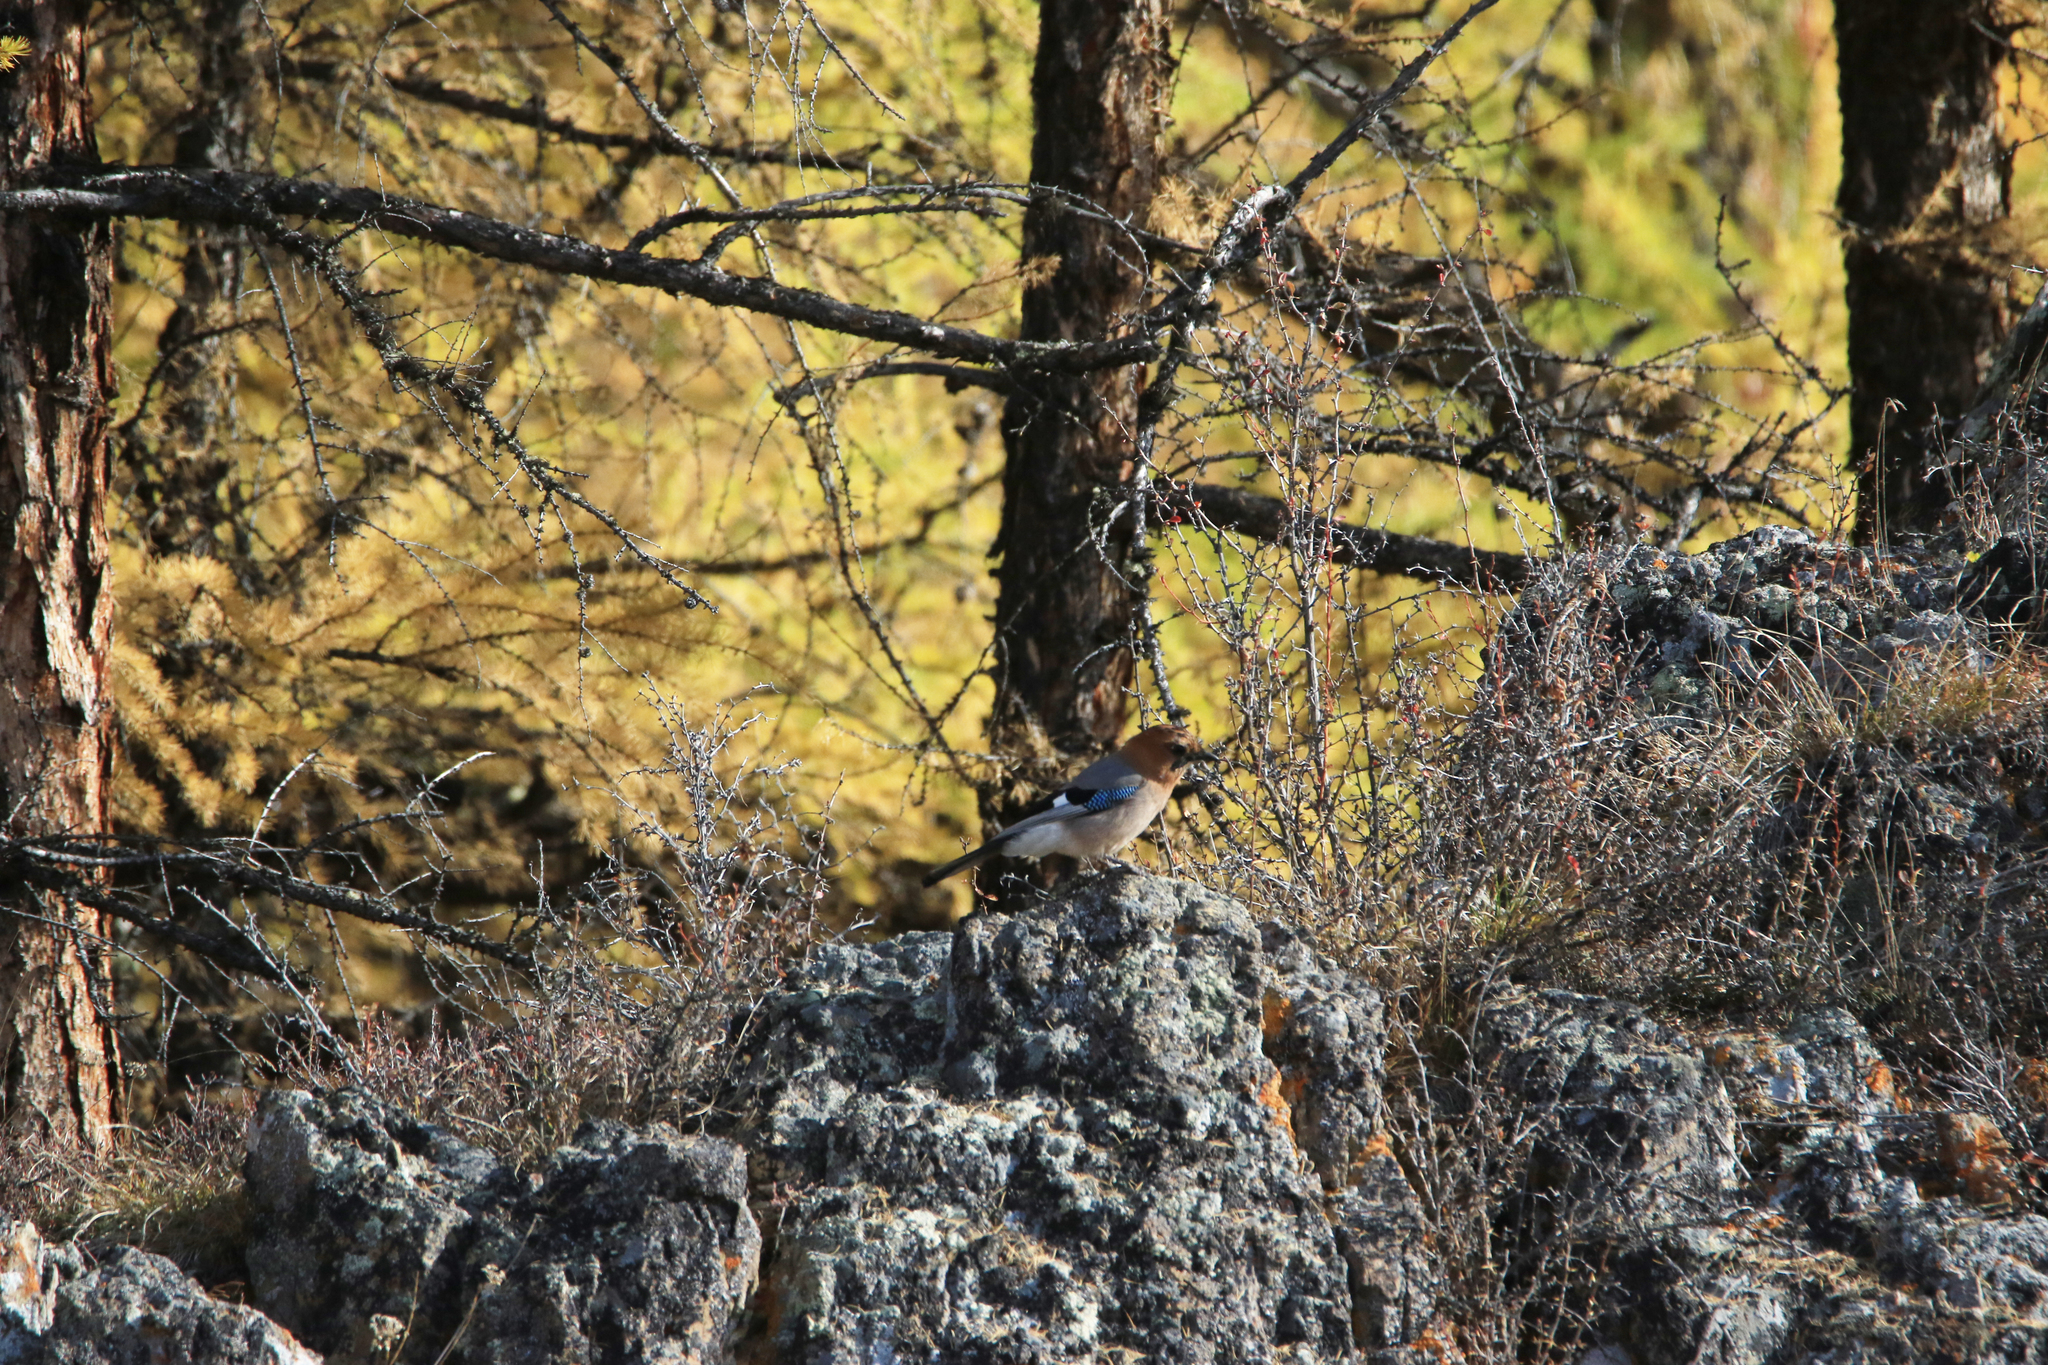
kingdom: Animalia
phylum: Chordata
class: Aves
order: Passeriformes
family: Corvidae
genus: Garrulus
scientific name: Garrulus glandarius
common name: Eurasian jay
